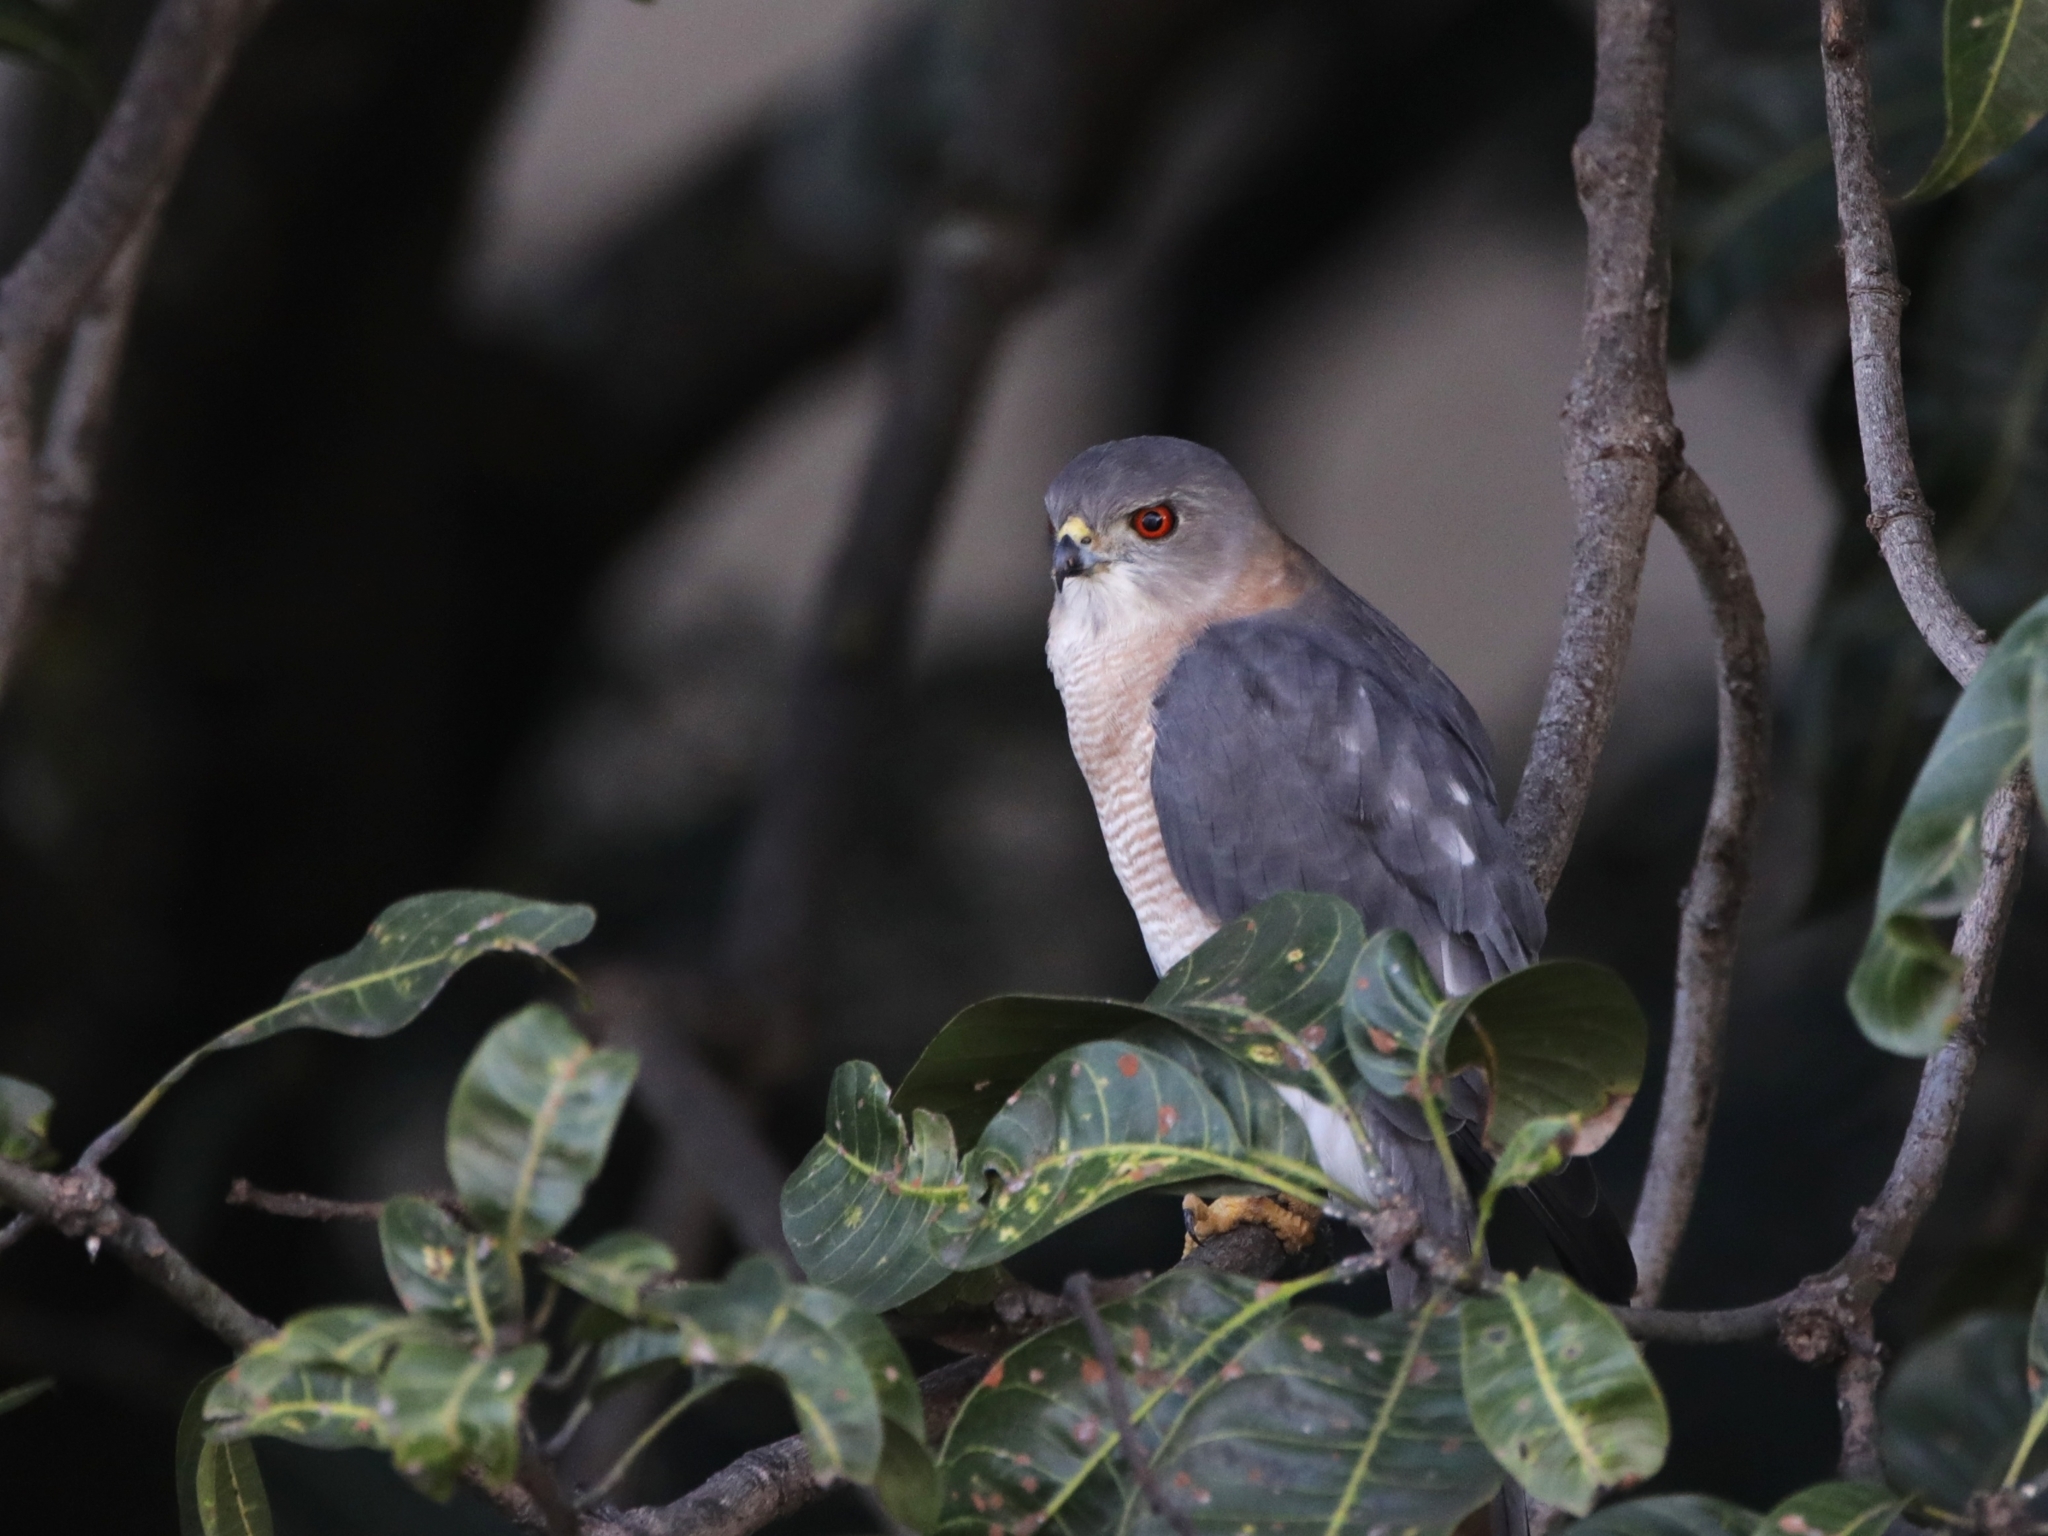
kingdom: Animalia
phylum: Chordata
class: Aves
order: Accipitriformes
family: Accipitridae
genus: Accipiter
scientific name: Accipiter badius
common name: Shikra
